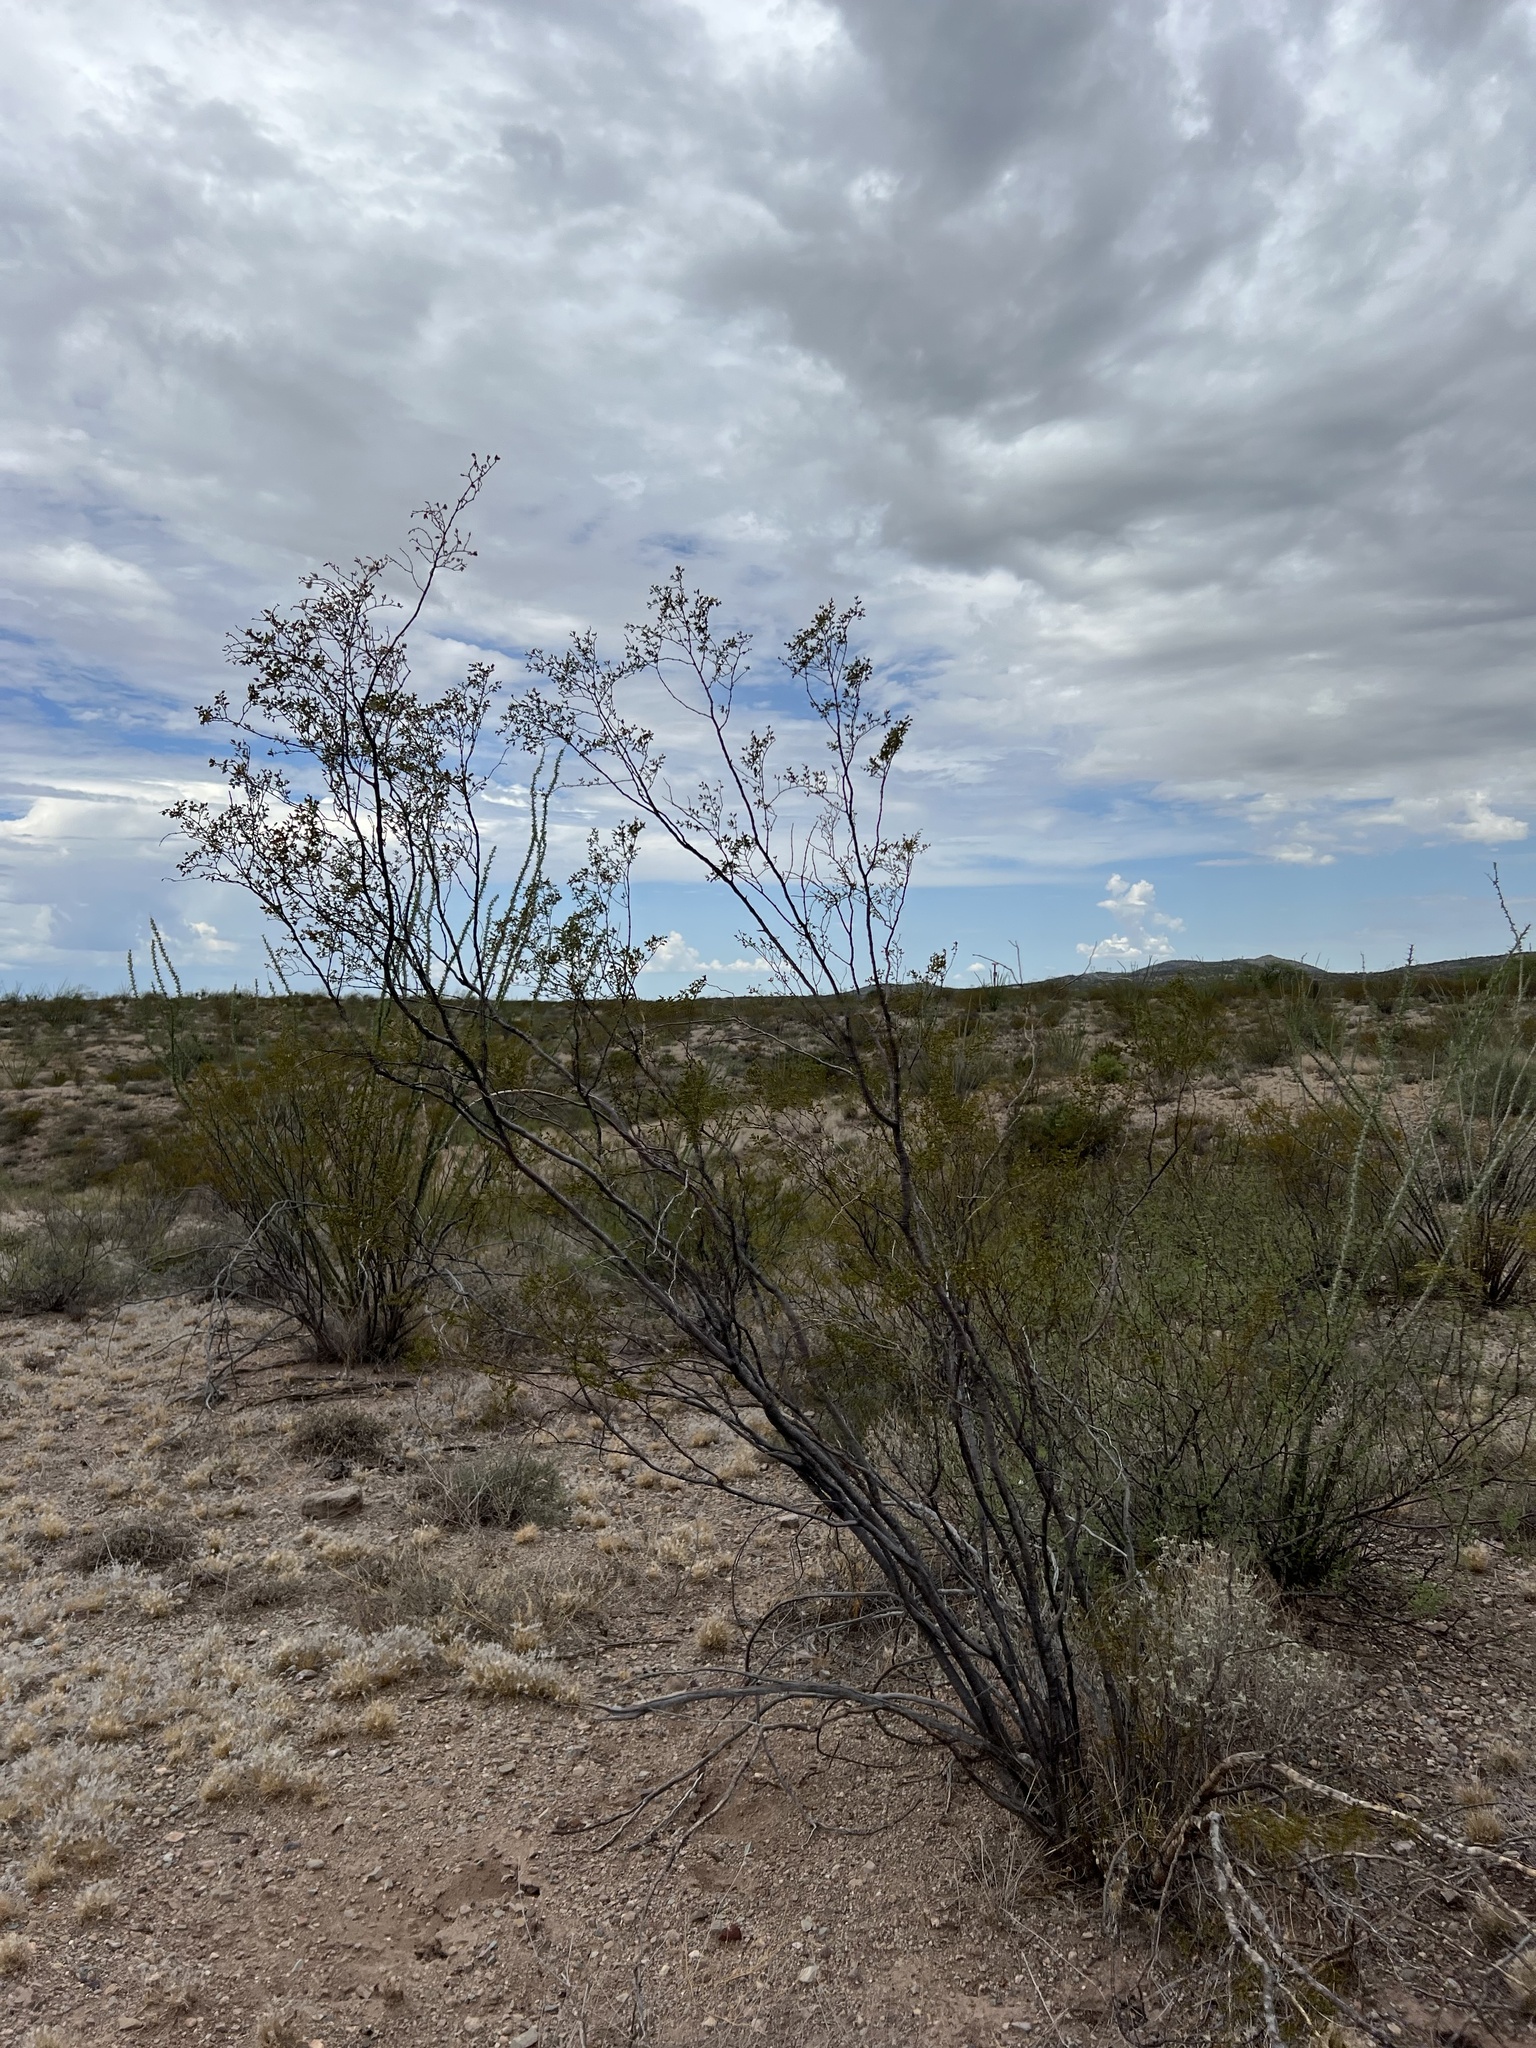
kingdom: Plantae
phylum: Tracheophyta
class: Magnoliopsida
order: Zygophyllales
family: Zygophyllaceae
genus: Larrea
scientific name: Larrea tridentata
